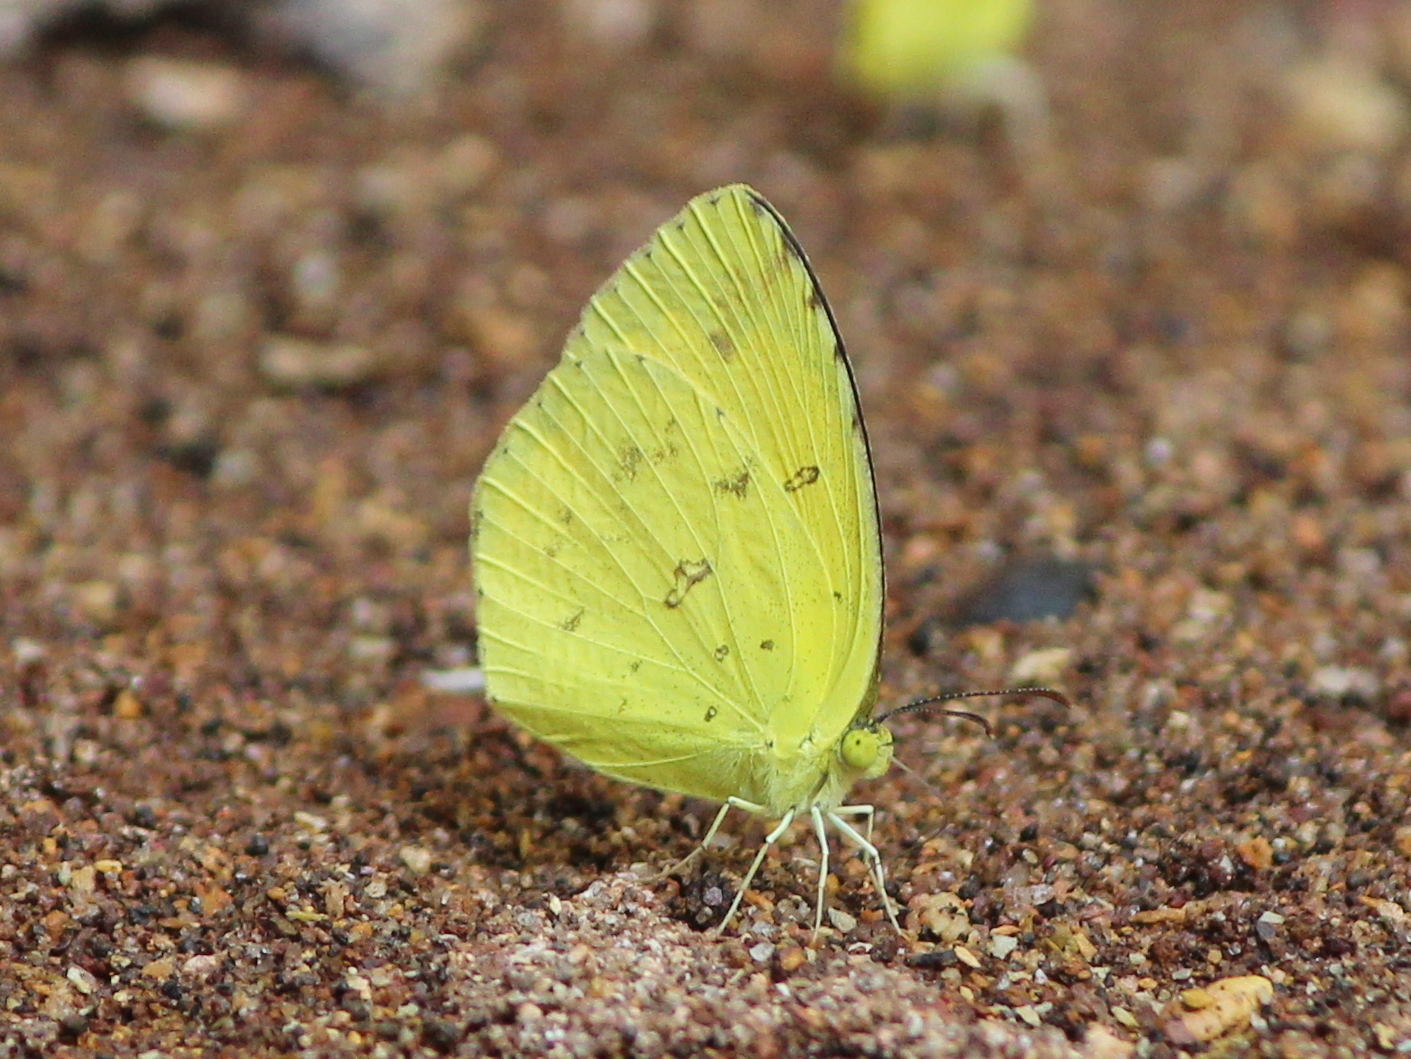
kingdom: Animalia
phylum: Arthropoda
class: Insecta
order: Lepidoptera
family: Pieridae
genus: Eurema
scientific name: Eurema hecabe
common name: Pale grass yellow
